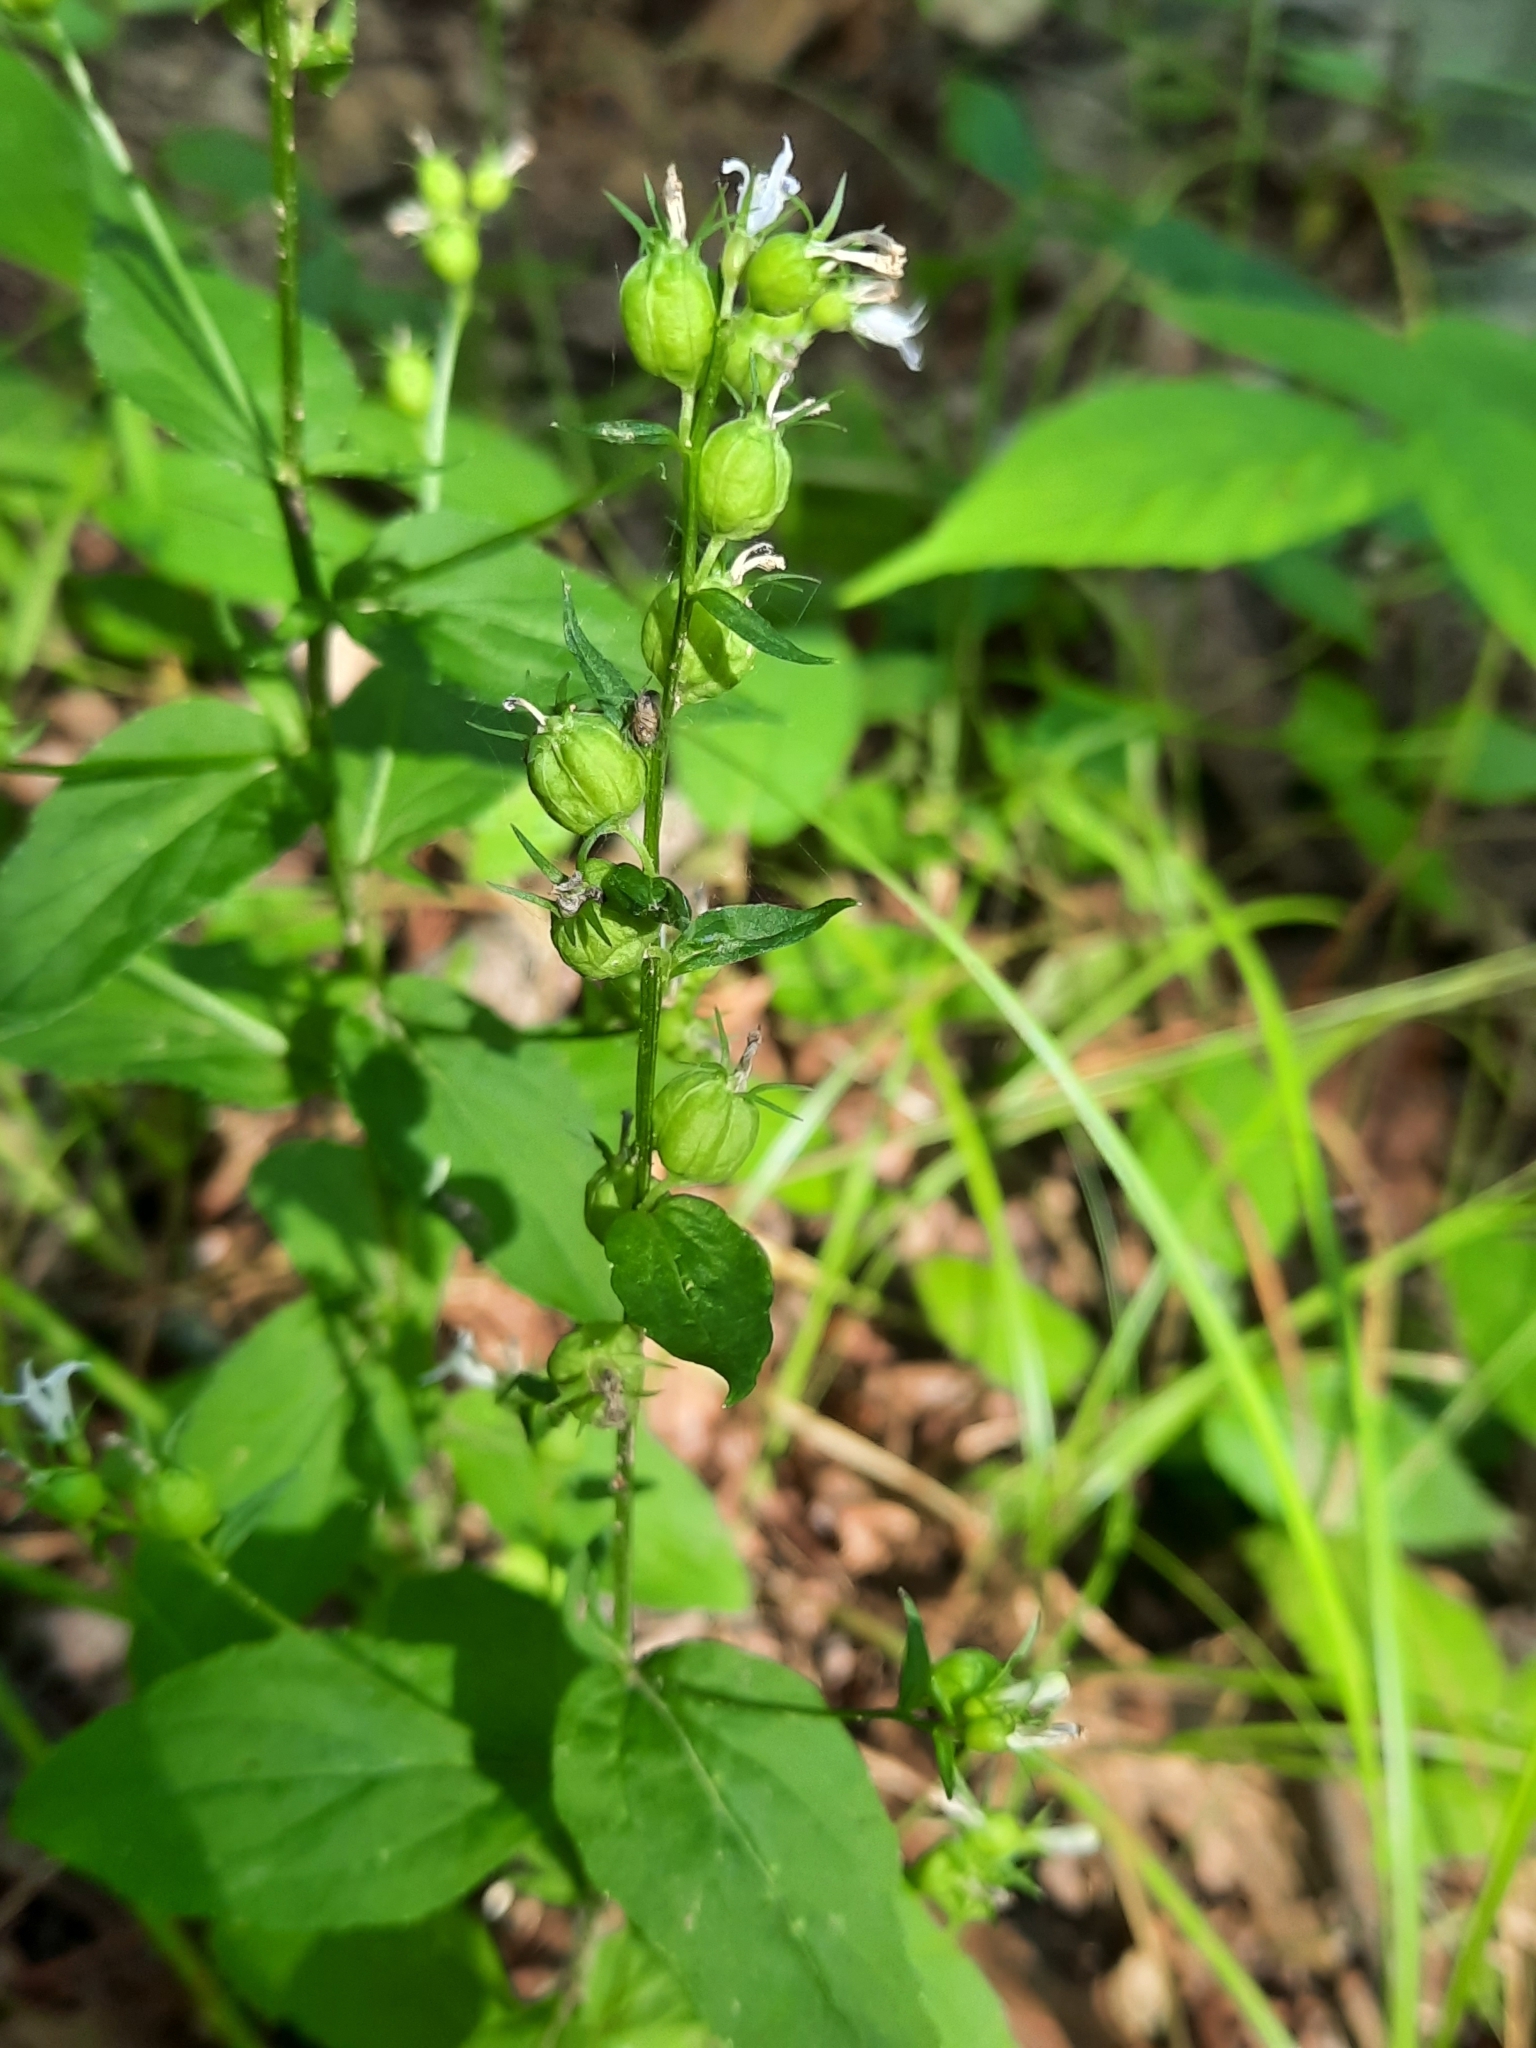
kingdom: Plantae
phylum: Tracheophyta
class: Magnoliopsida
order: Asterales
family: Campanulaceae
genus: Lobelia
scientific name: Lobelia inflata
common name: Indian tobacco
